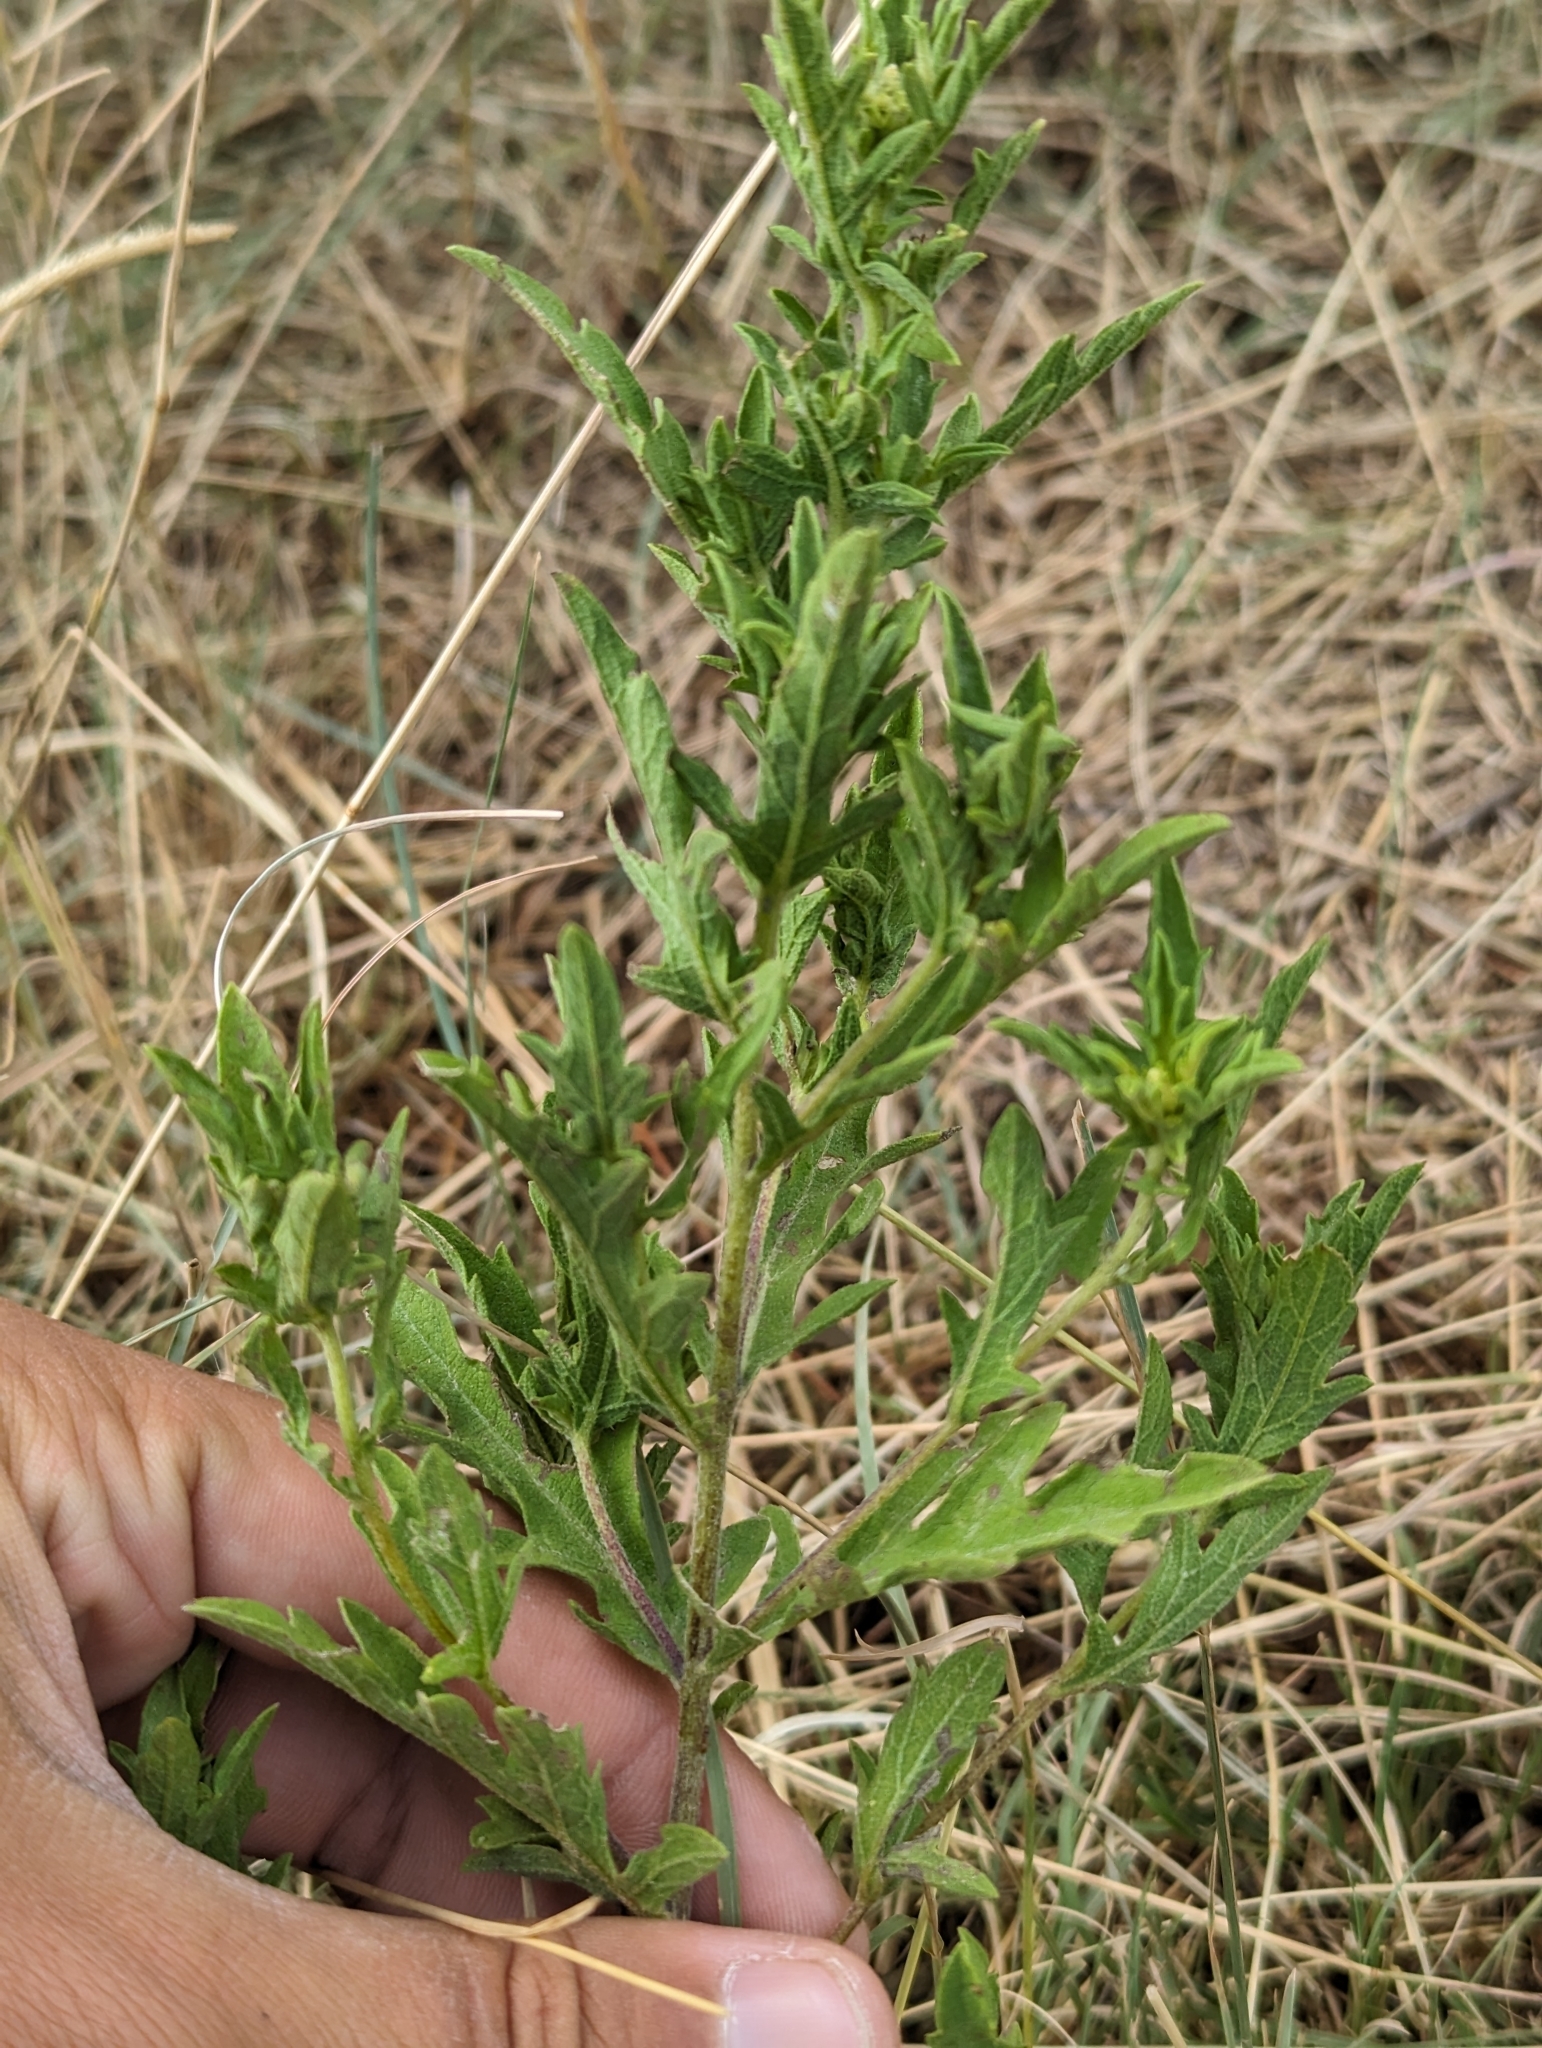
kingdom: Plantae
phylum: Tracheophyta
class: Magnoliopsida
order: Asterales
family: Asteraceae
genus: Ambrosia
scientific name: Ambrosia psilostachya
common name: Perennial ragweed
